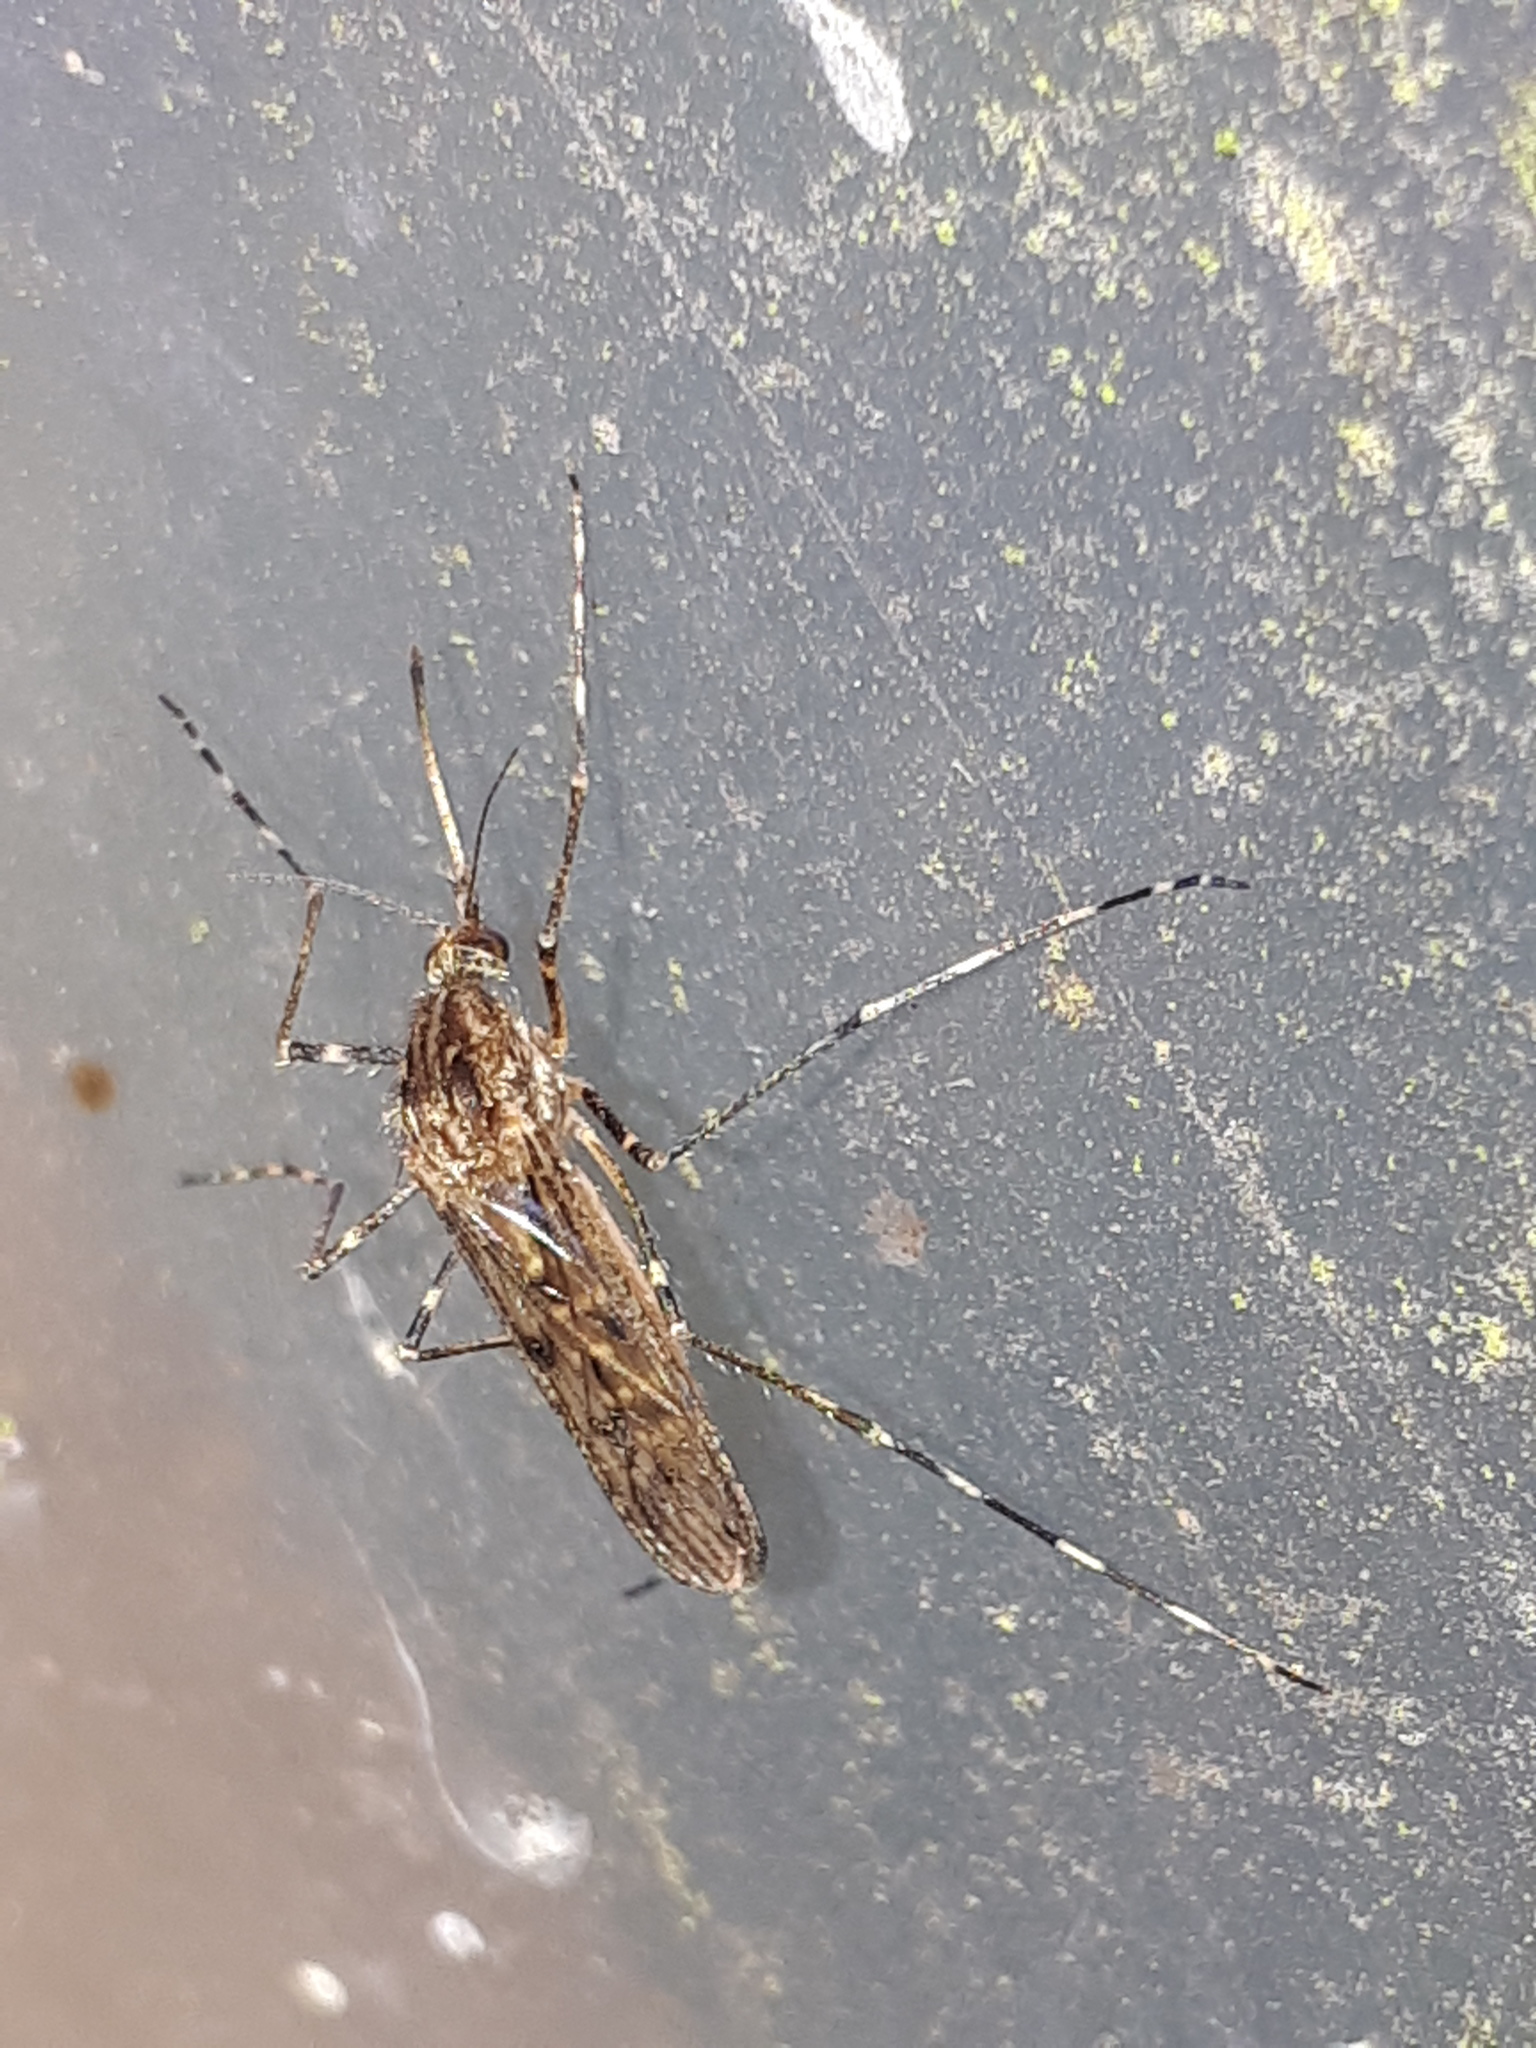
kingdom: Animalia
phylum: Arthropoda
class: Insecta
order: Diptera
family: Culicidae
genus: Culiseta
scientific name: Culiseta annulata
